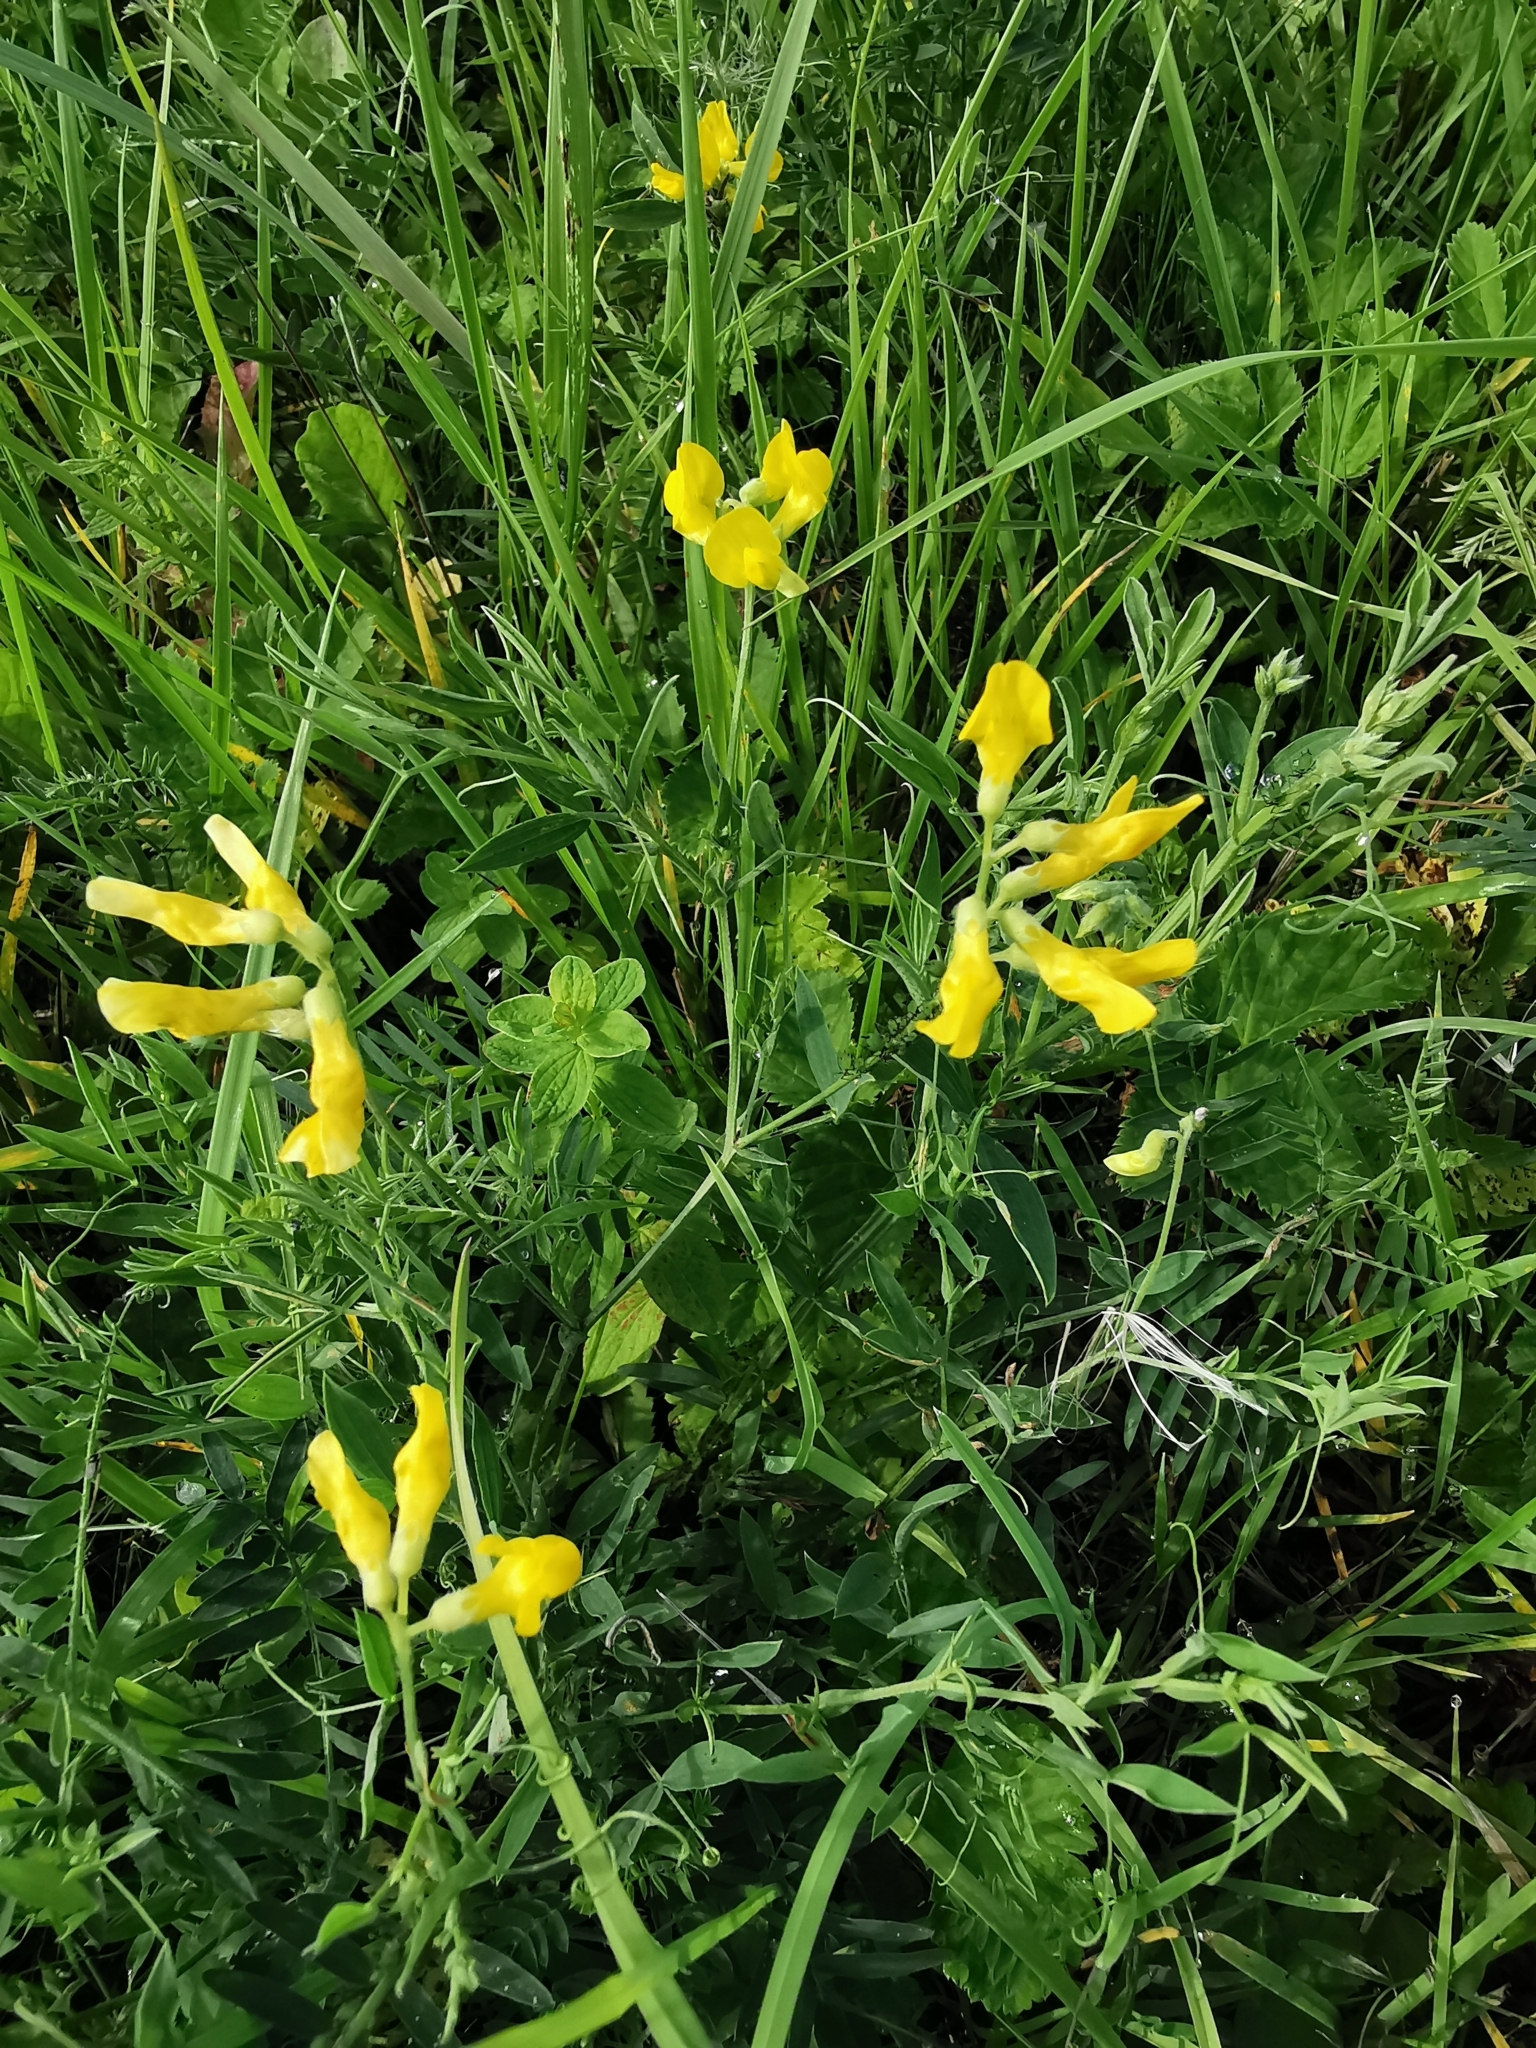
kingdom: Plantae
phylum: Tracheophyta
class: Magnoliopsida
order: Fabales
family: Fabaceae
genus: Lathyrus
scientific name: Lathyrus pratensis
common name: Meadow vetchling
